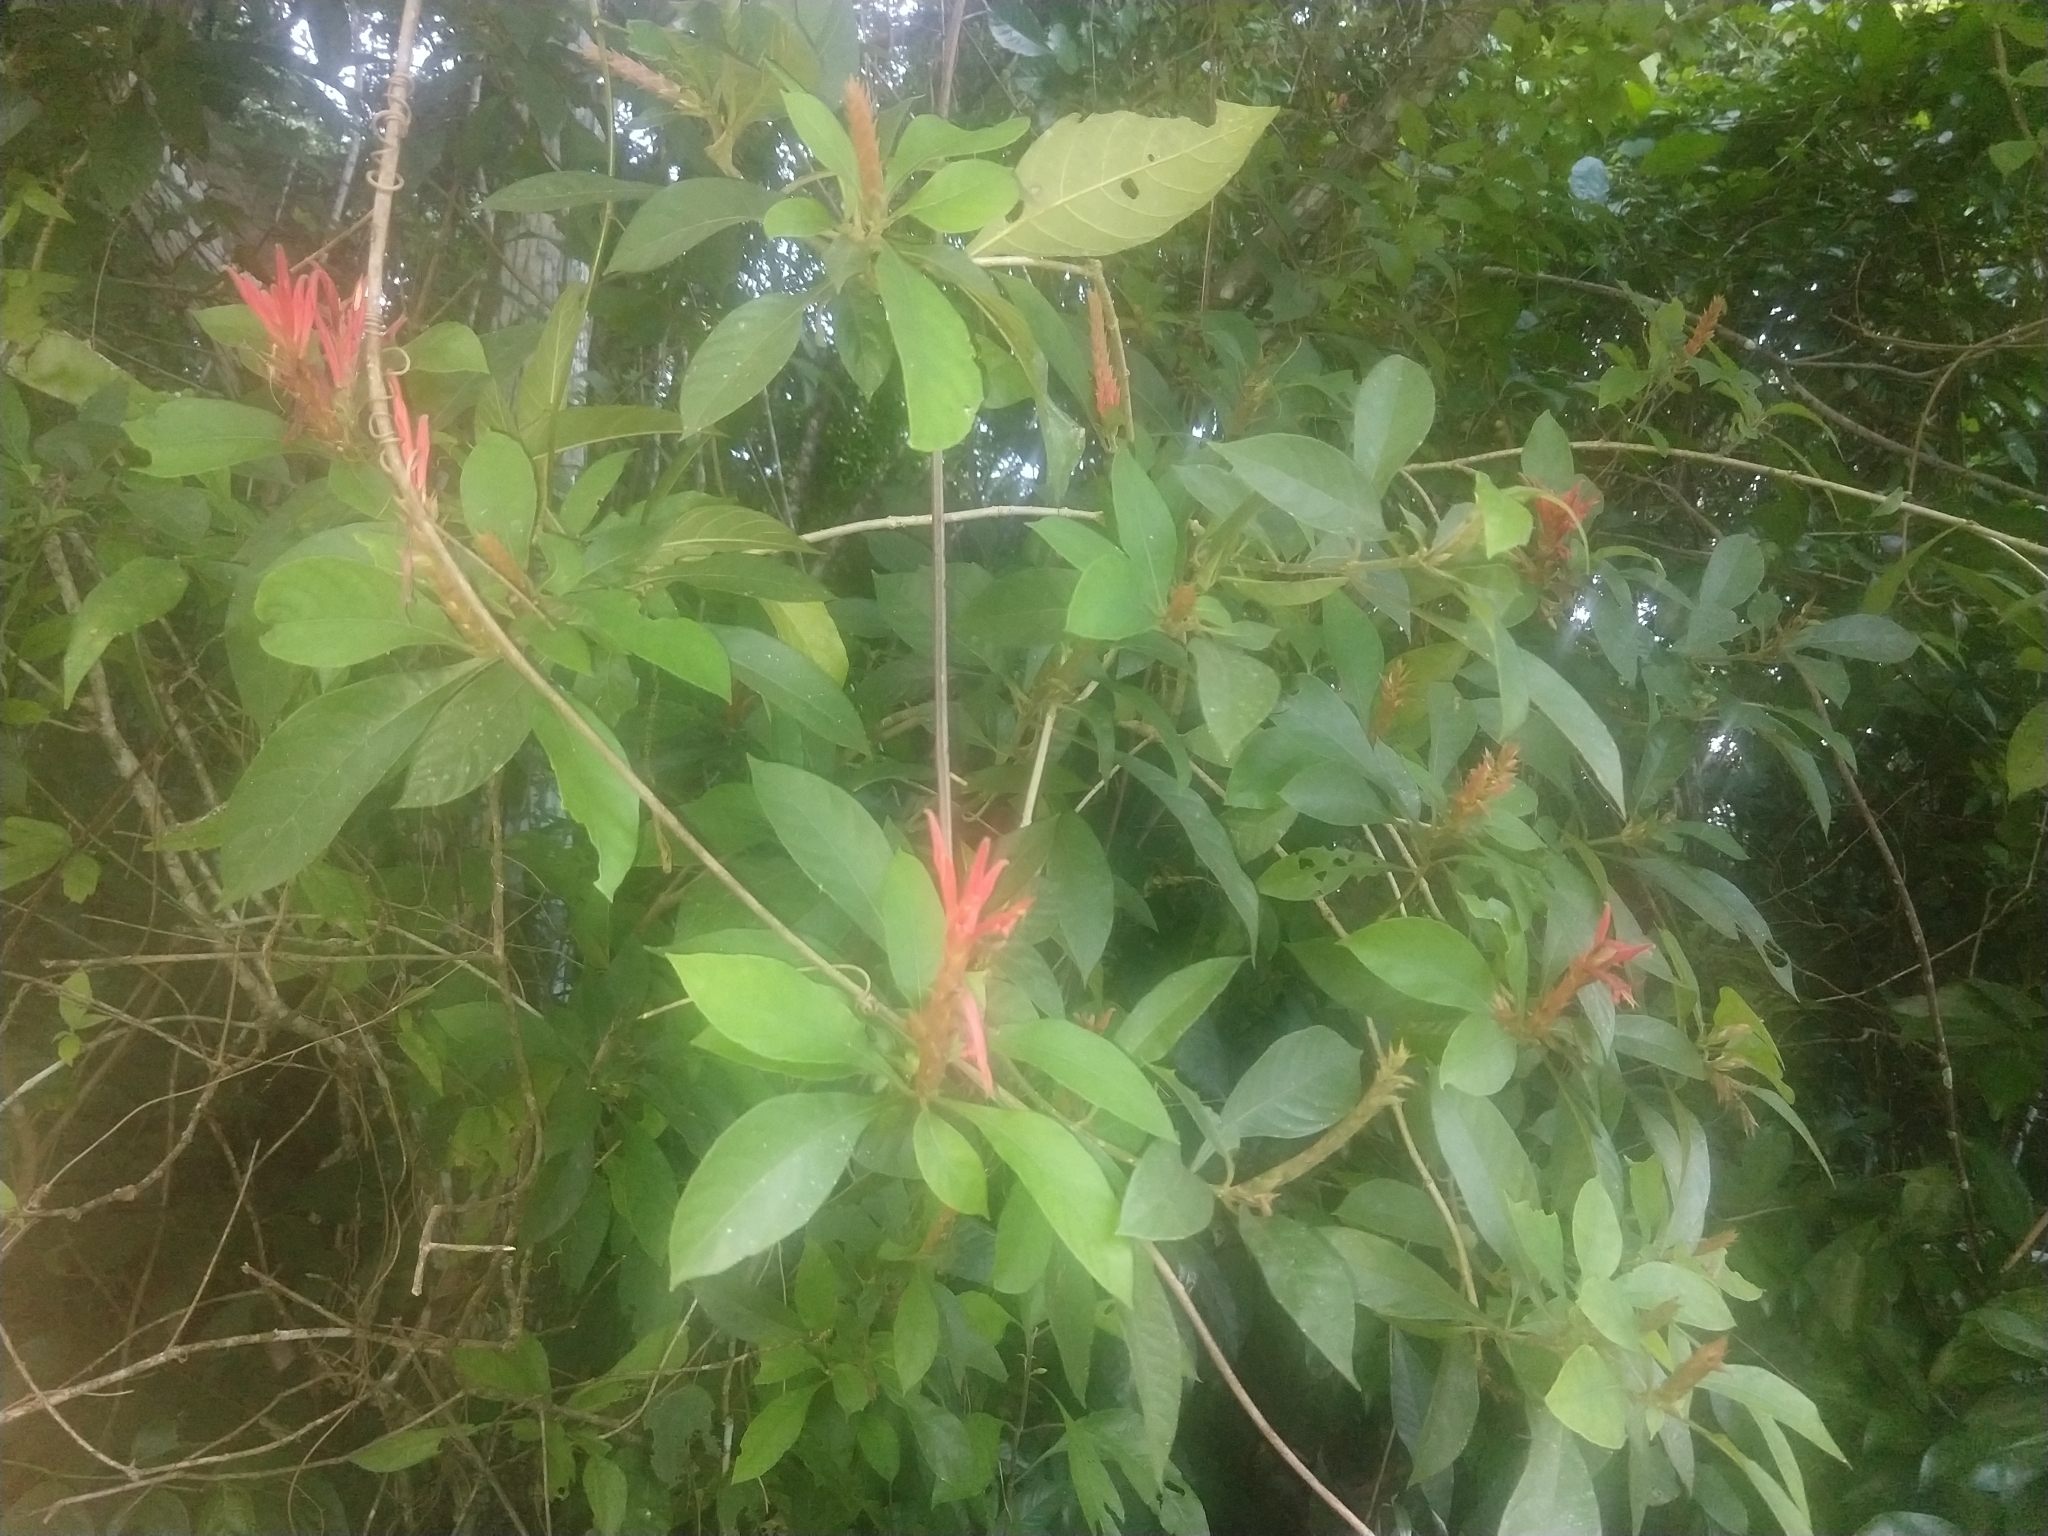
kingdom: Plantae
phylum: Tracheophyta
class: Magnoliopsida
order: Lamiales
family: Acanthaceae
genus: Aphelandra
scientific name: Aphelandra scabra
